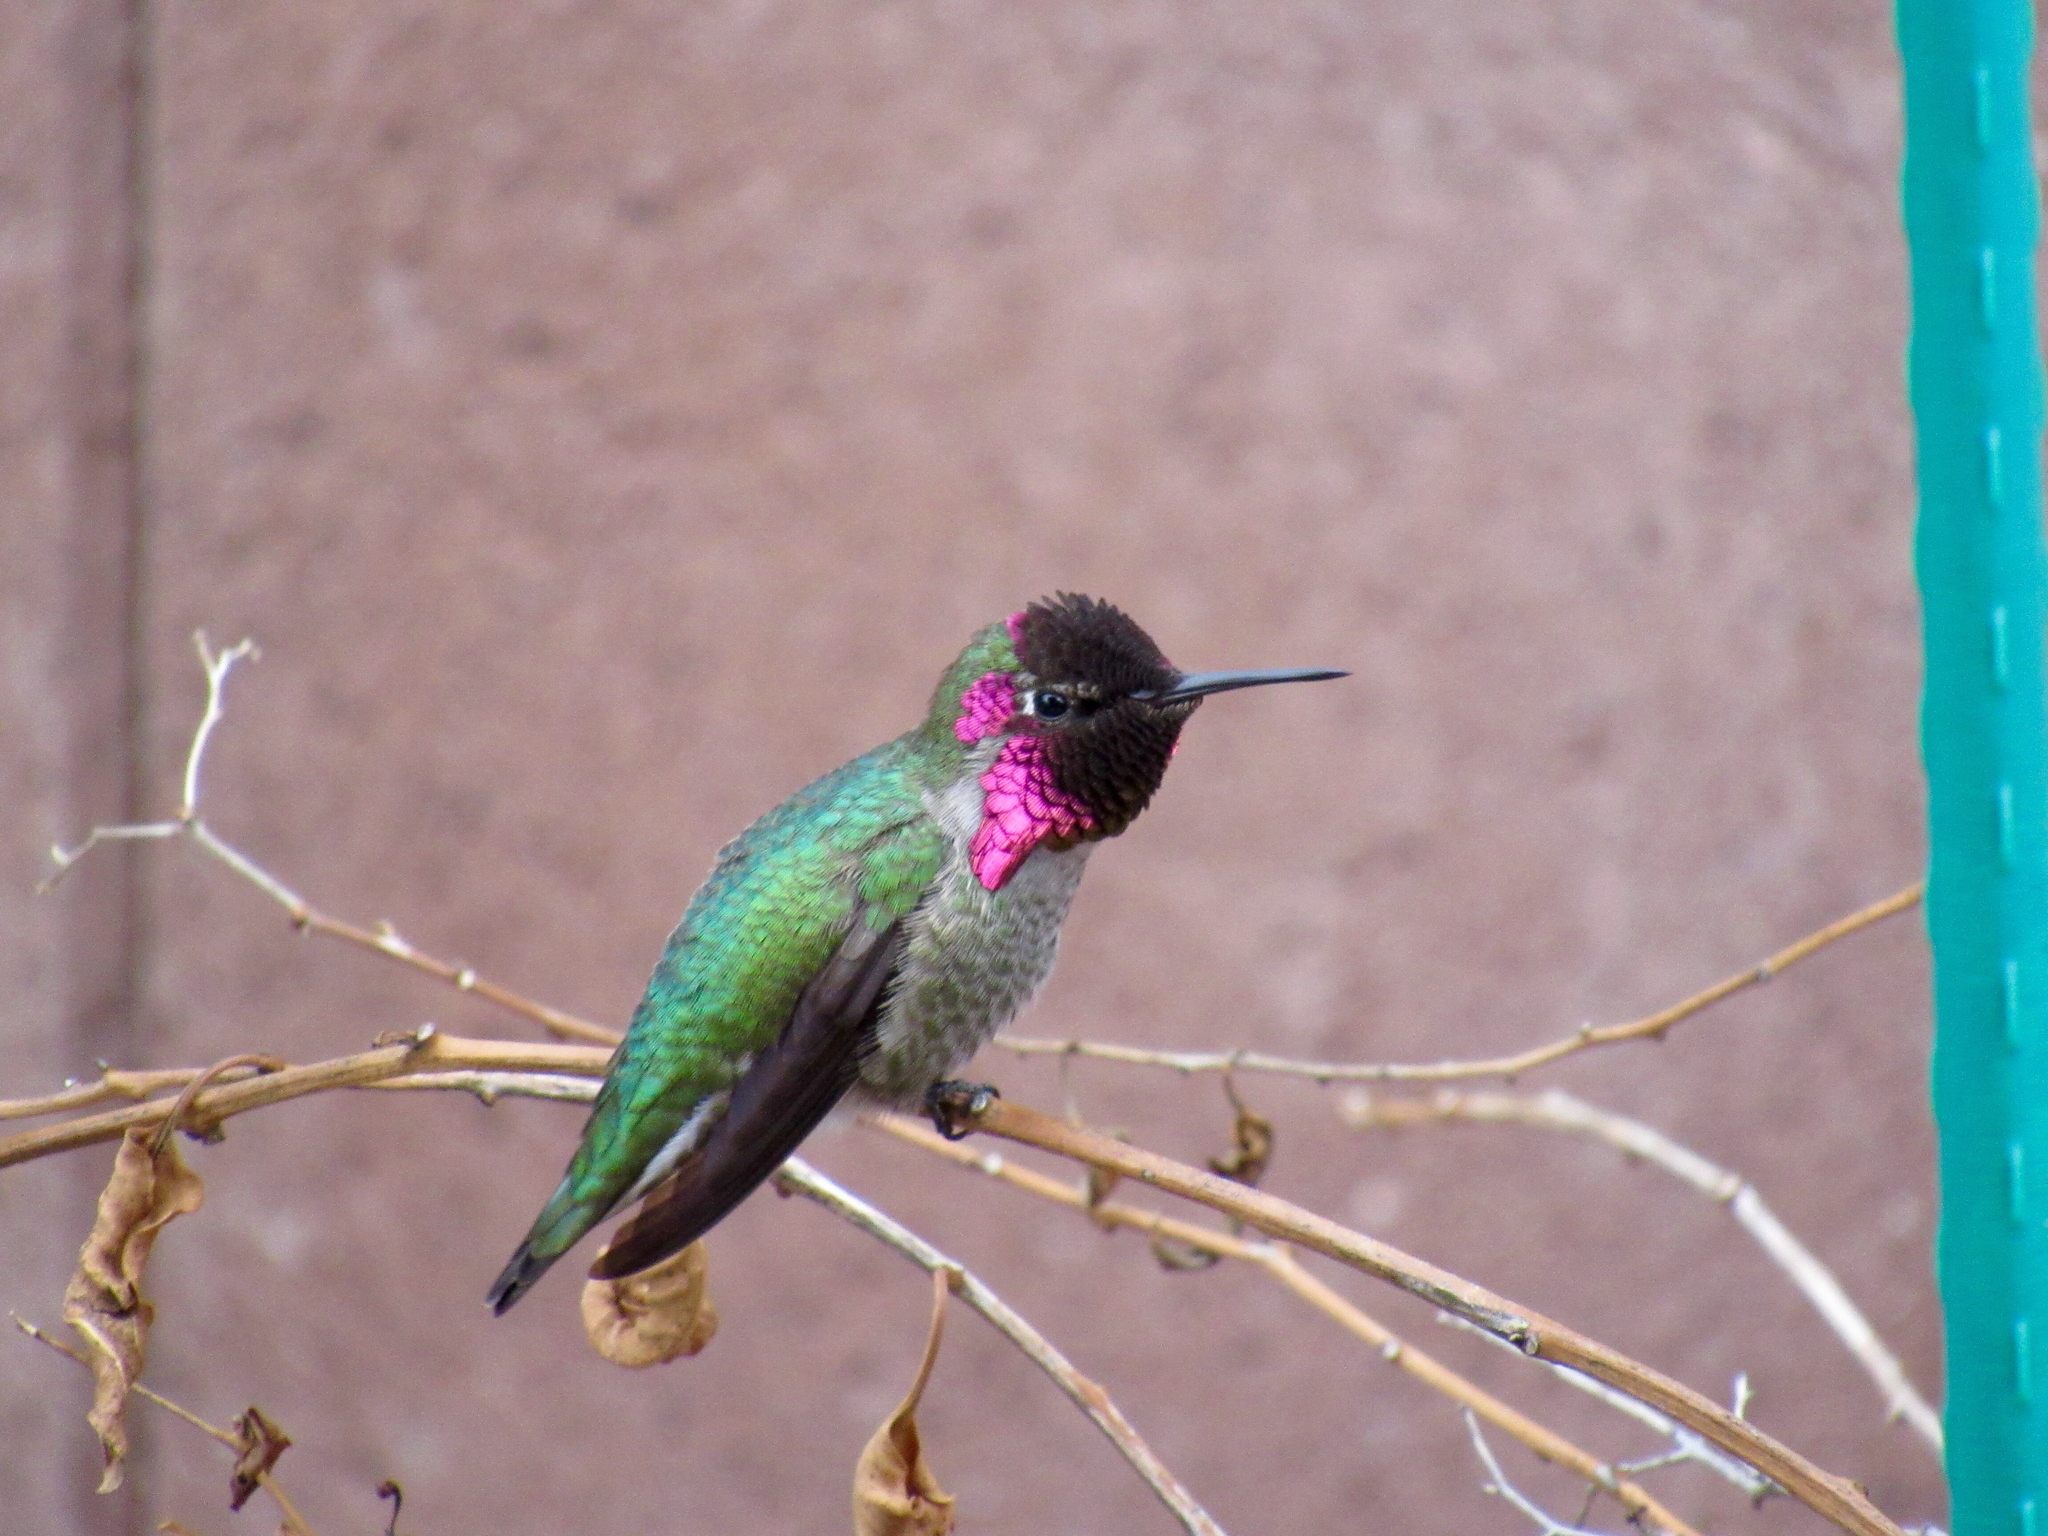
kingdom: Animalia
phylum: Chordata
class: Aves
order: Apodiformes
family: Trochilidae
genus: Calypte
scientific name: Calypte anna
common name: Anna's hummingbird
